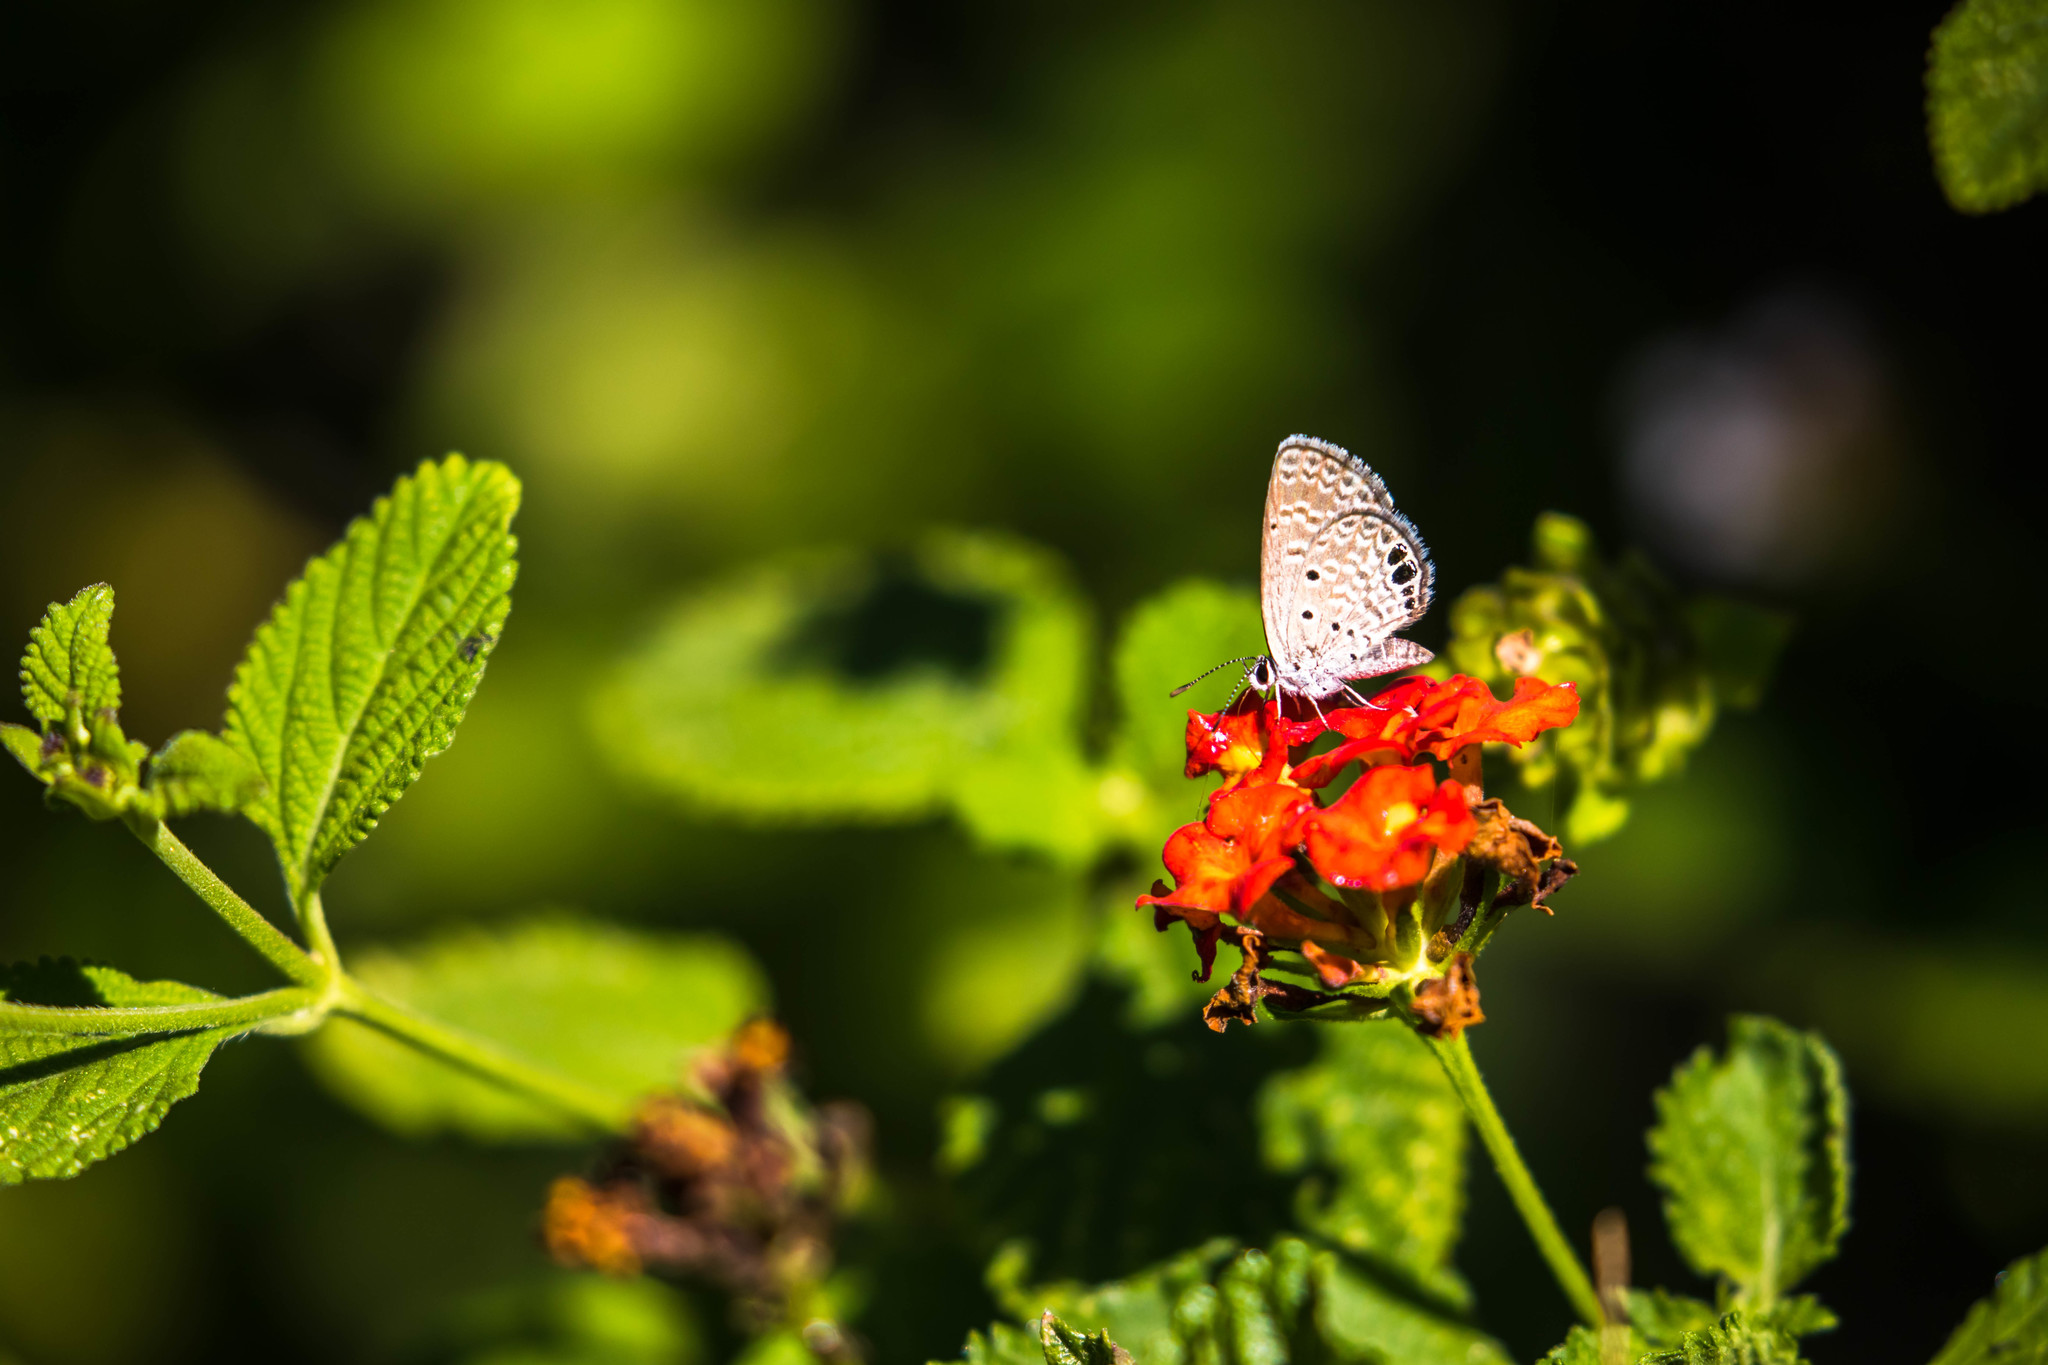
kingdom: Animalia
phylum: Arthropoda
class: Insecta
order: Lepidoptera
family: Lycaenidae
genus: Hemiargus
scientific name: Hemiargus ceraunus
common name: Ceraunus blue
